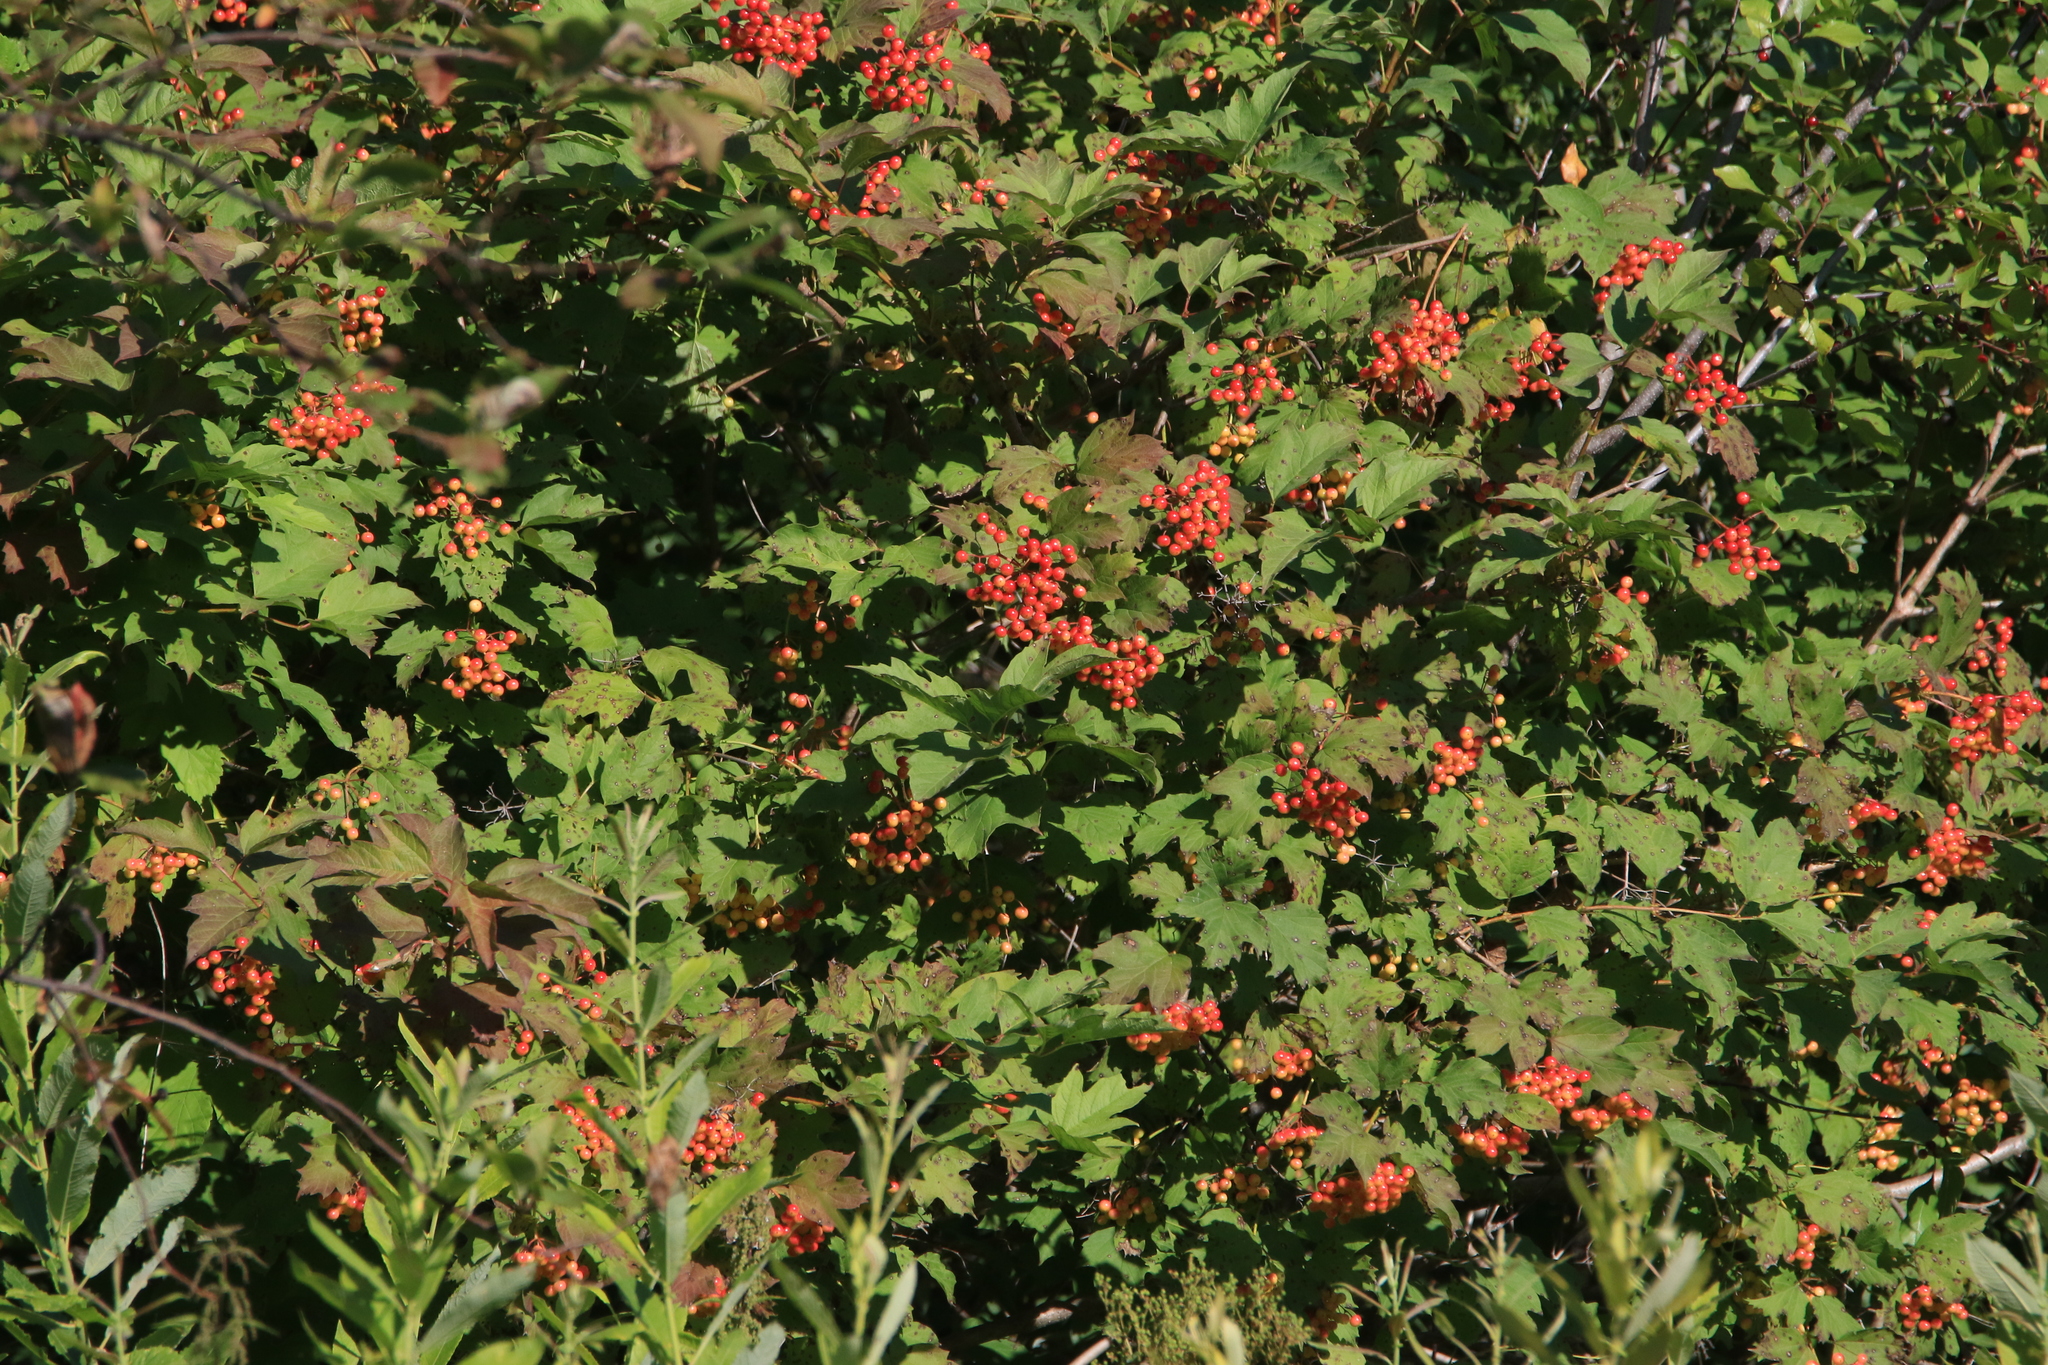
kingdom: Plantae
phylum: Tracheophyta
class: Magnoliopsida
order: Dipsacales
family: Viburnaceae
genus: Viburnum
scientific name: Viburnum opulus
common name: Guelder-rose
